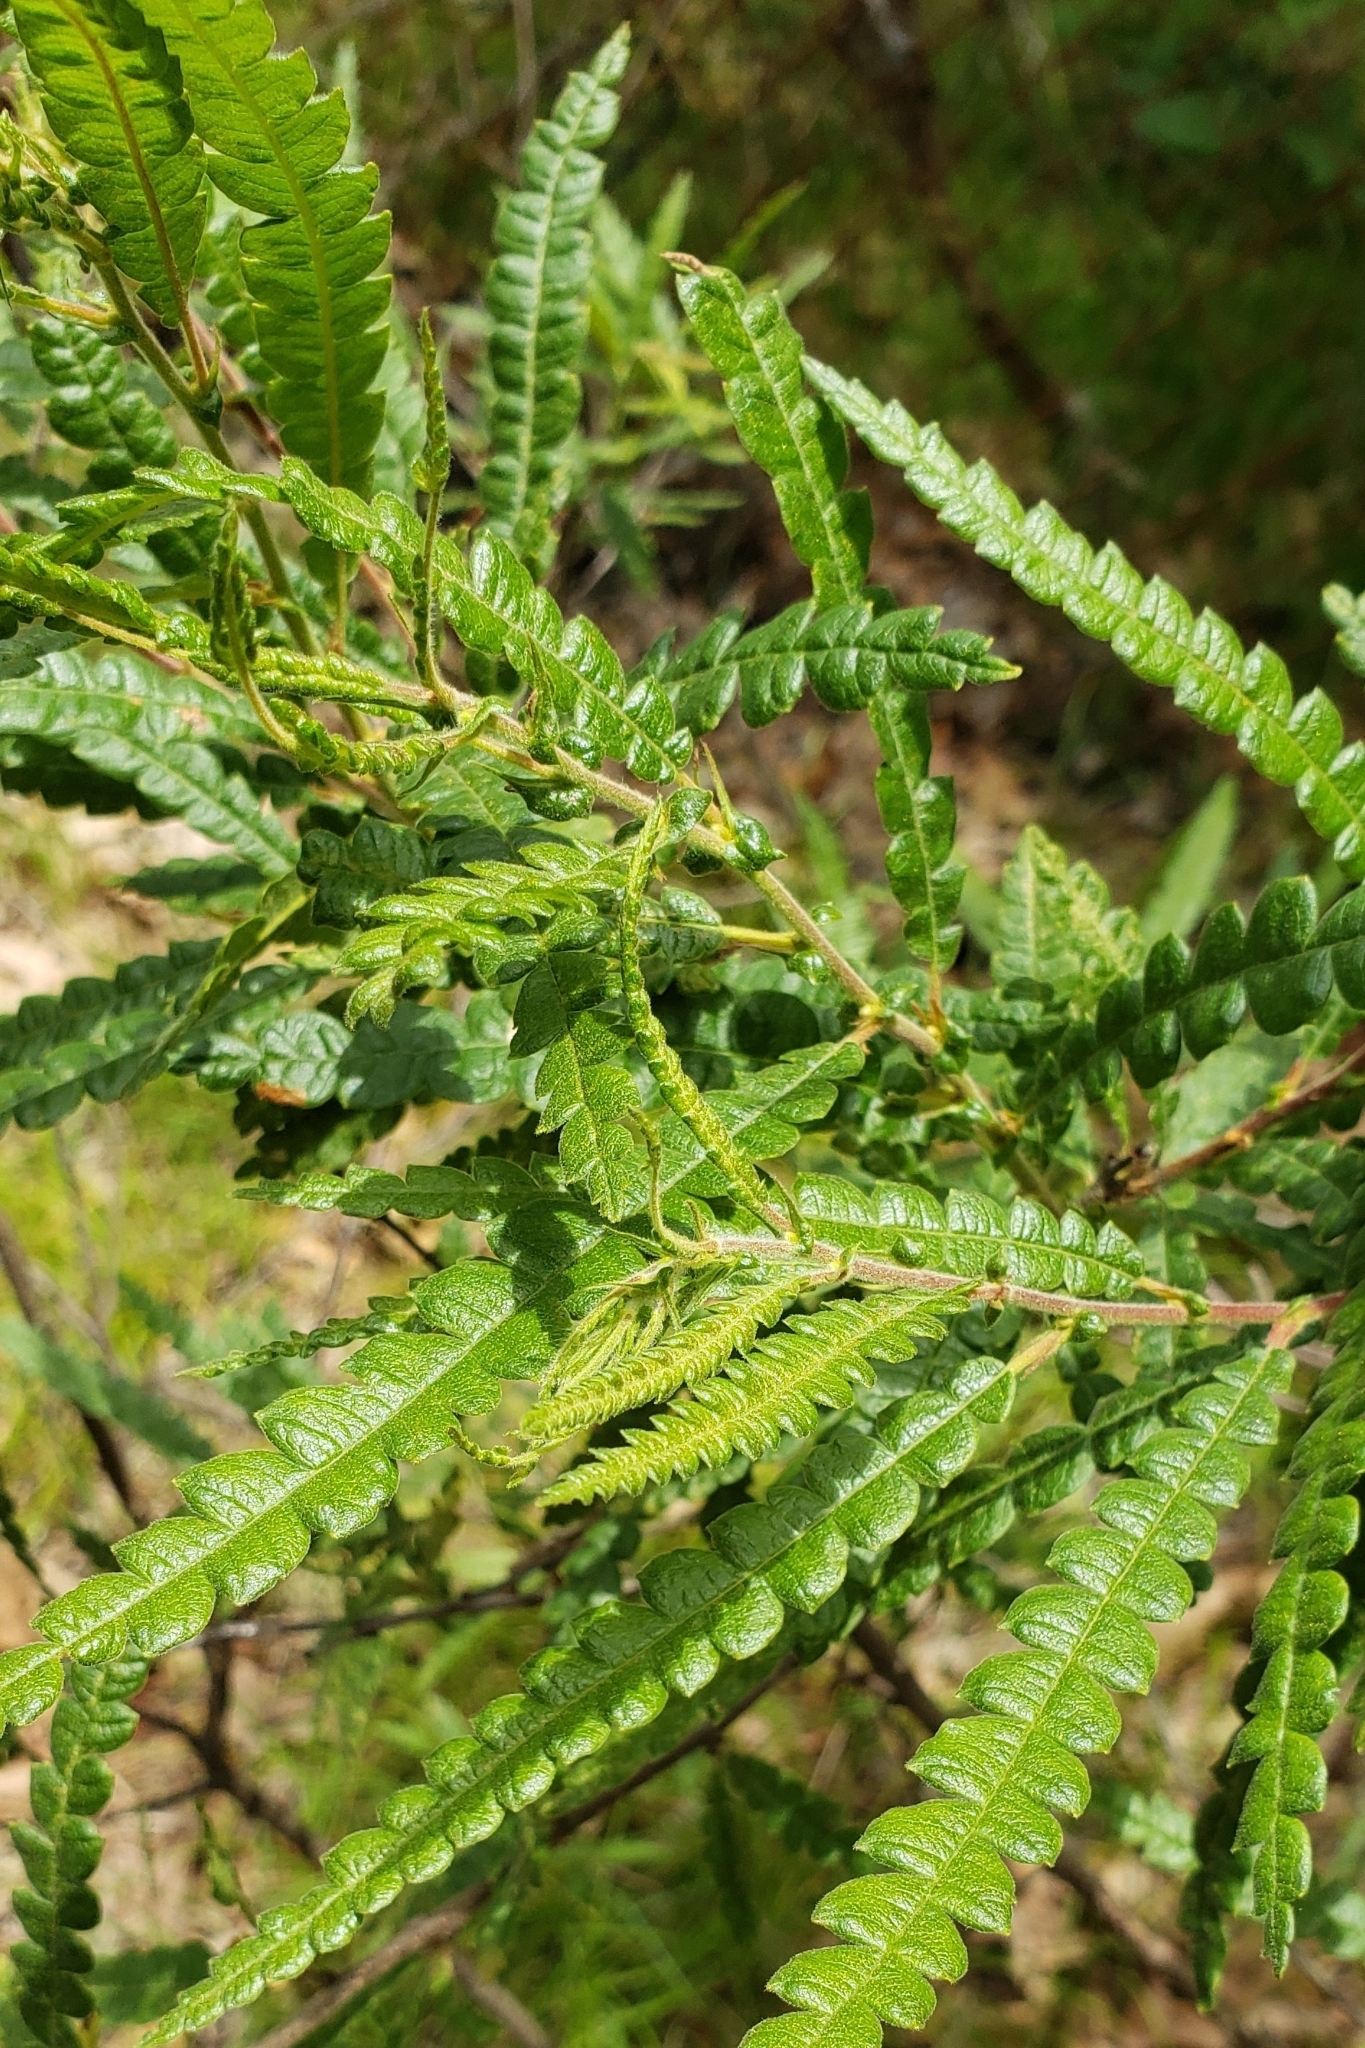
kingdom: Plantae
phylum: Tracheophyta
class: Magnoliopsida
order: Fagales
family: Myricaceae
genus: Comptonia
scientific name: Comptonia peregrina
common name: Sweet-fern
